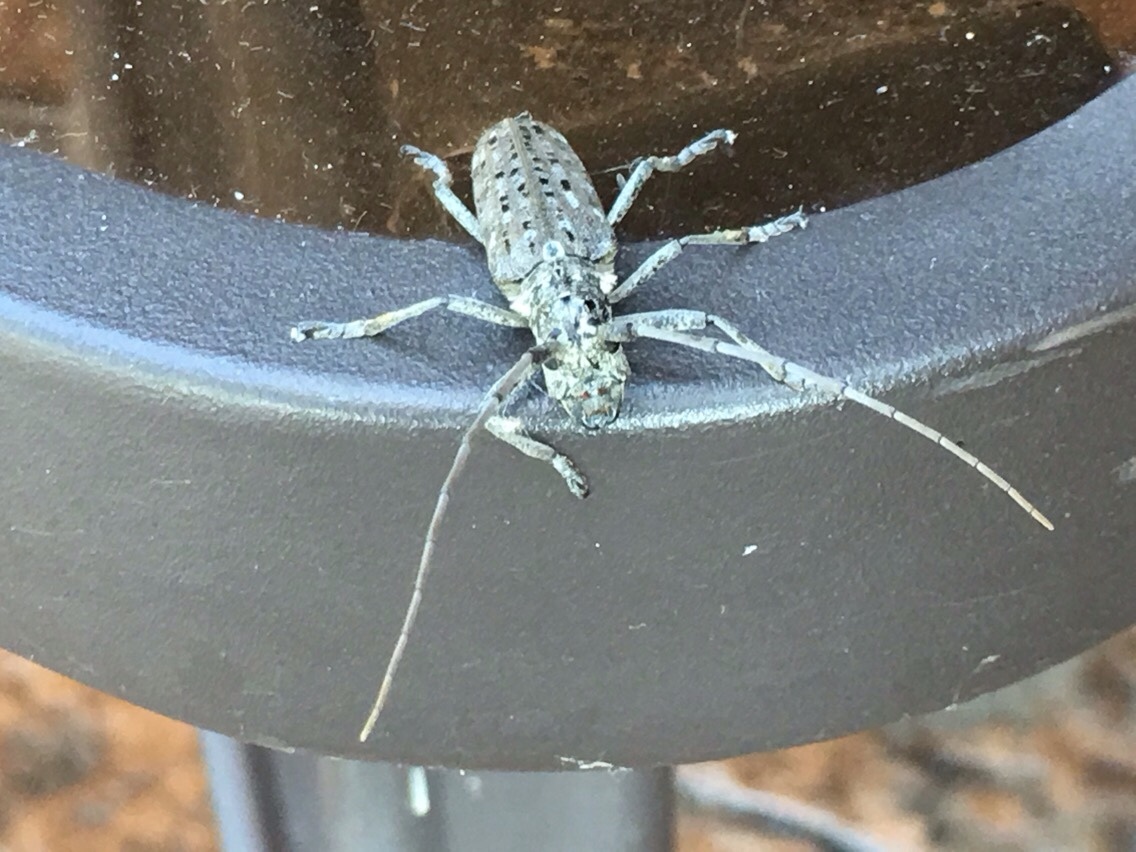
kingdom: Animalia
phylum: Arthropoda
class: Insecta
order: Coleoptera
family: Cerambycidae
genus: Monochamus
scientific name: Monochamus notatus
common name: Northeastern pine sawyer beetle
